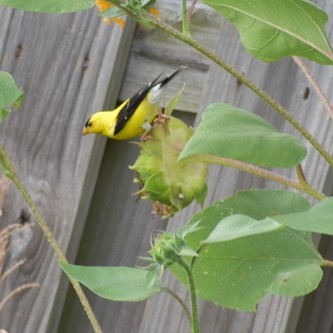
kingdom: Animalia
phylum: Chordata
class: Aves
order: Passeriformes
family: Fringillidae
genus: Spinus
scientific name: Spinus tristis
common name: American goldfinch
